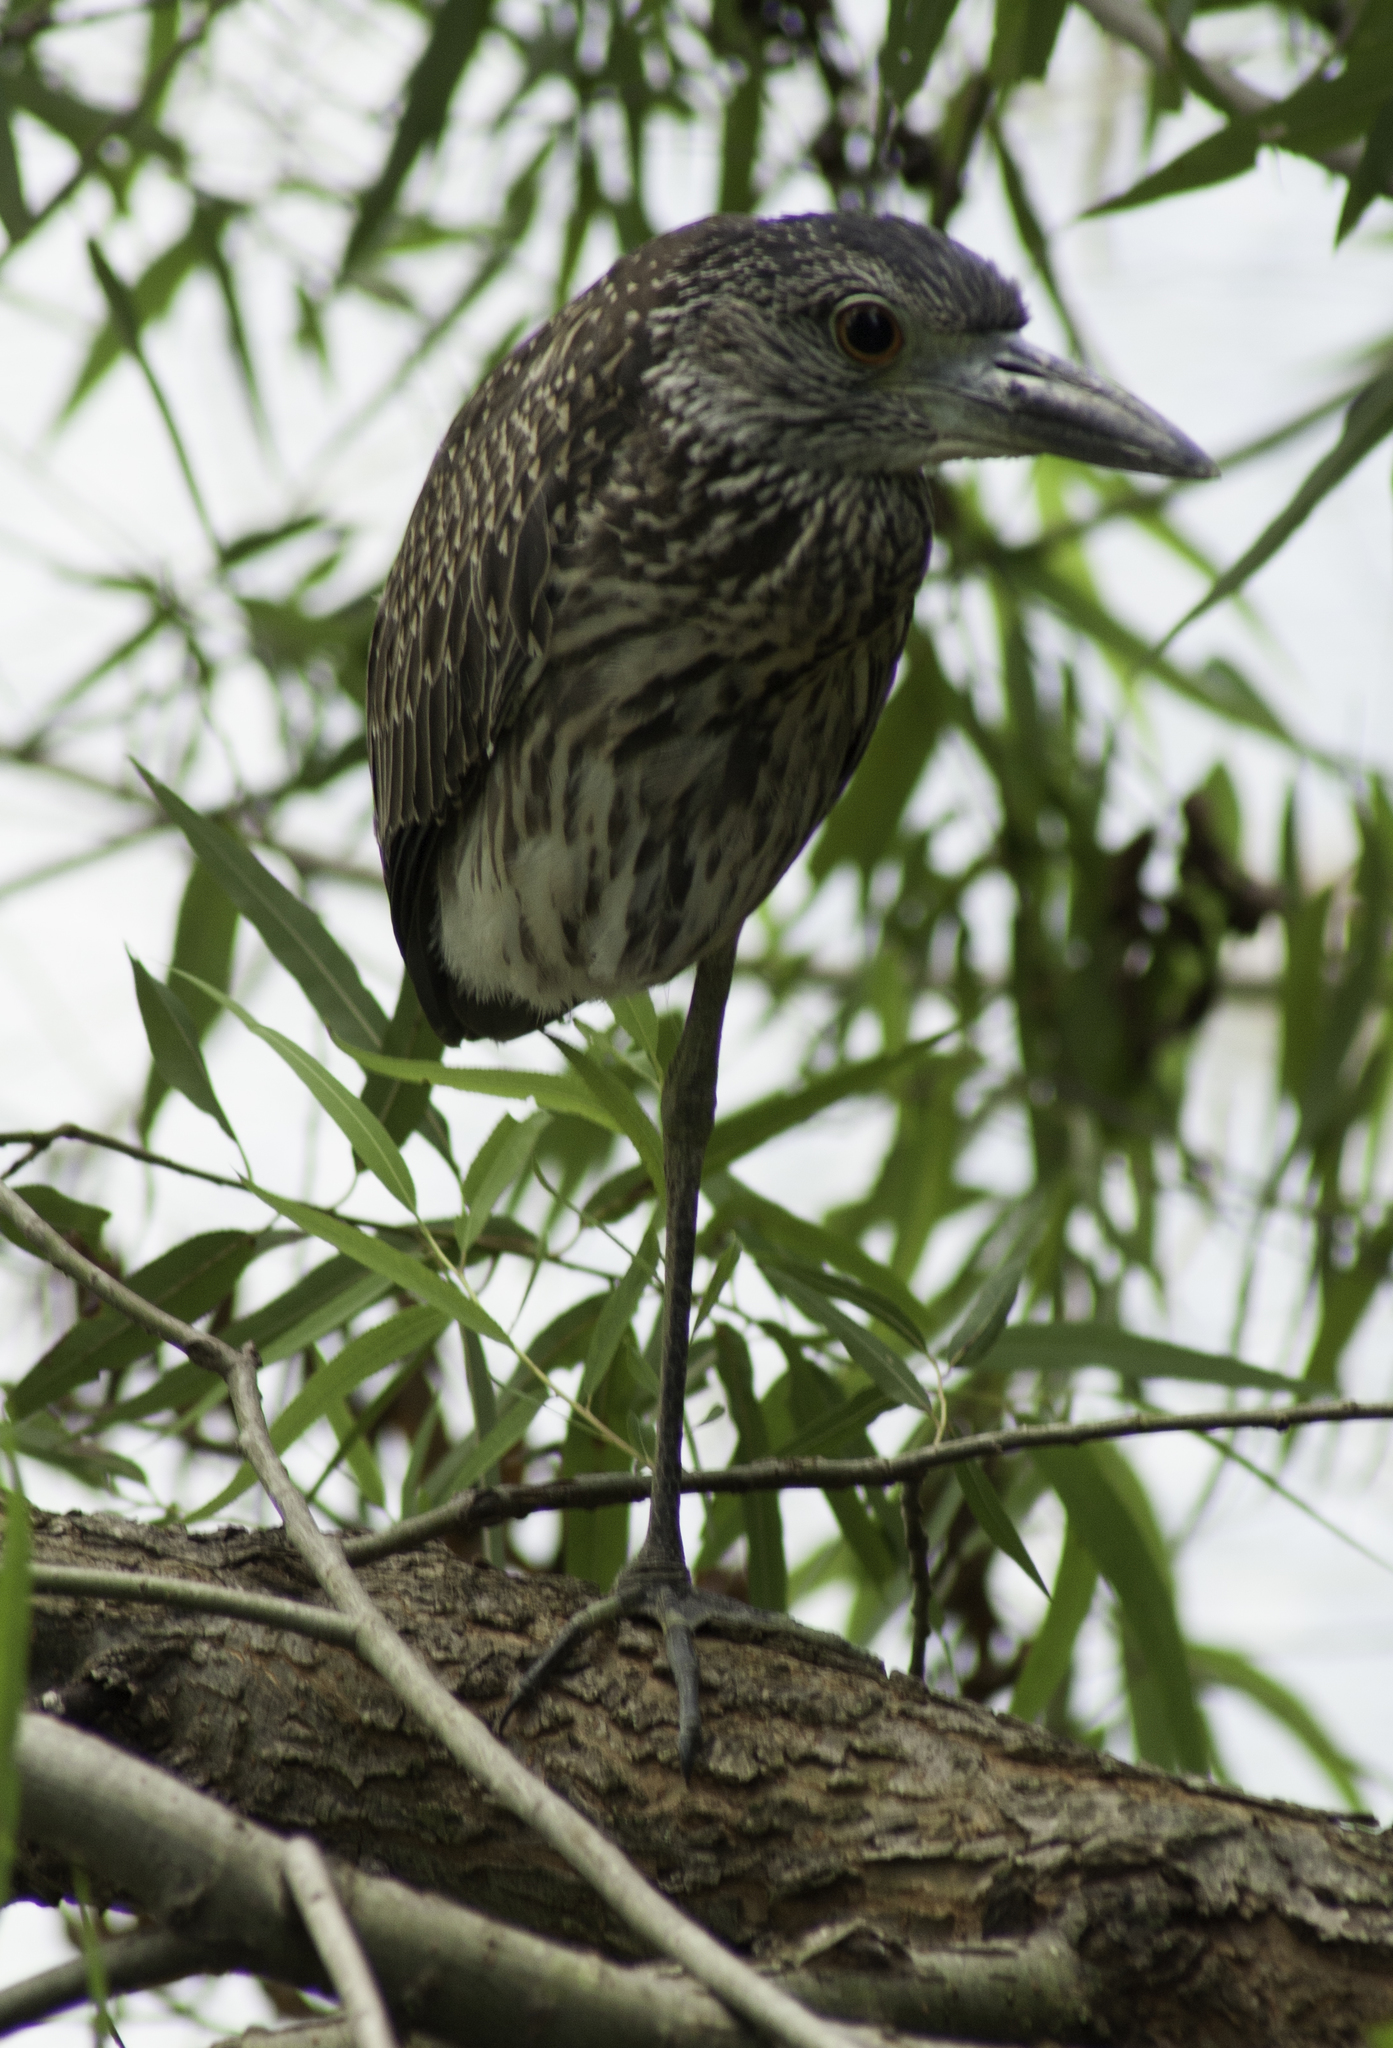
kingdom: Animalia
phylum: Chordata
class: Aves
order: Pelecaniformes
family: Ardeidae
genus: Nyctanassa
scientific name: Nyctanassa violacea
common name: Yellow-crowned night heron
